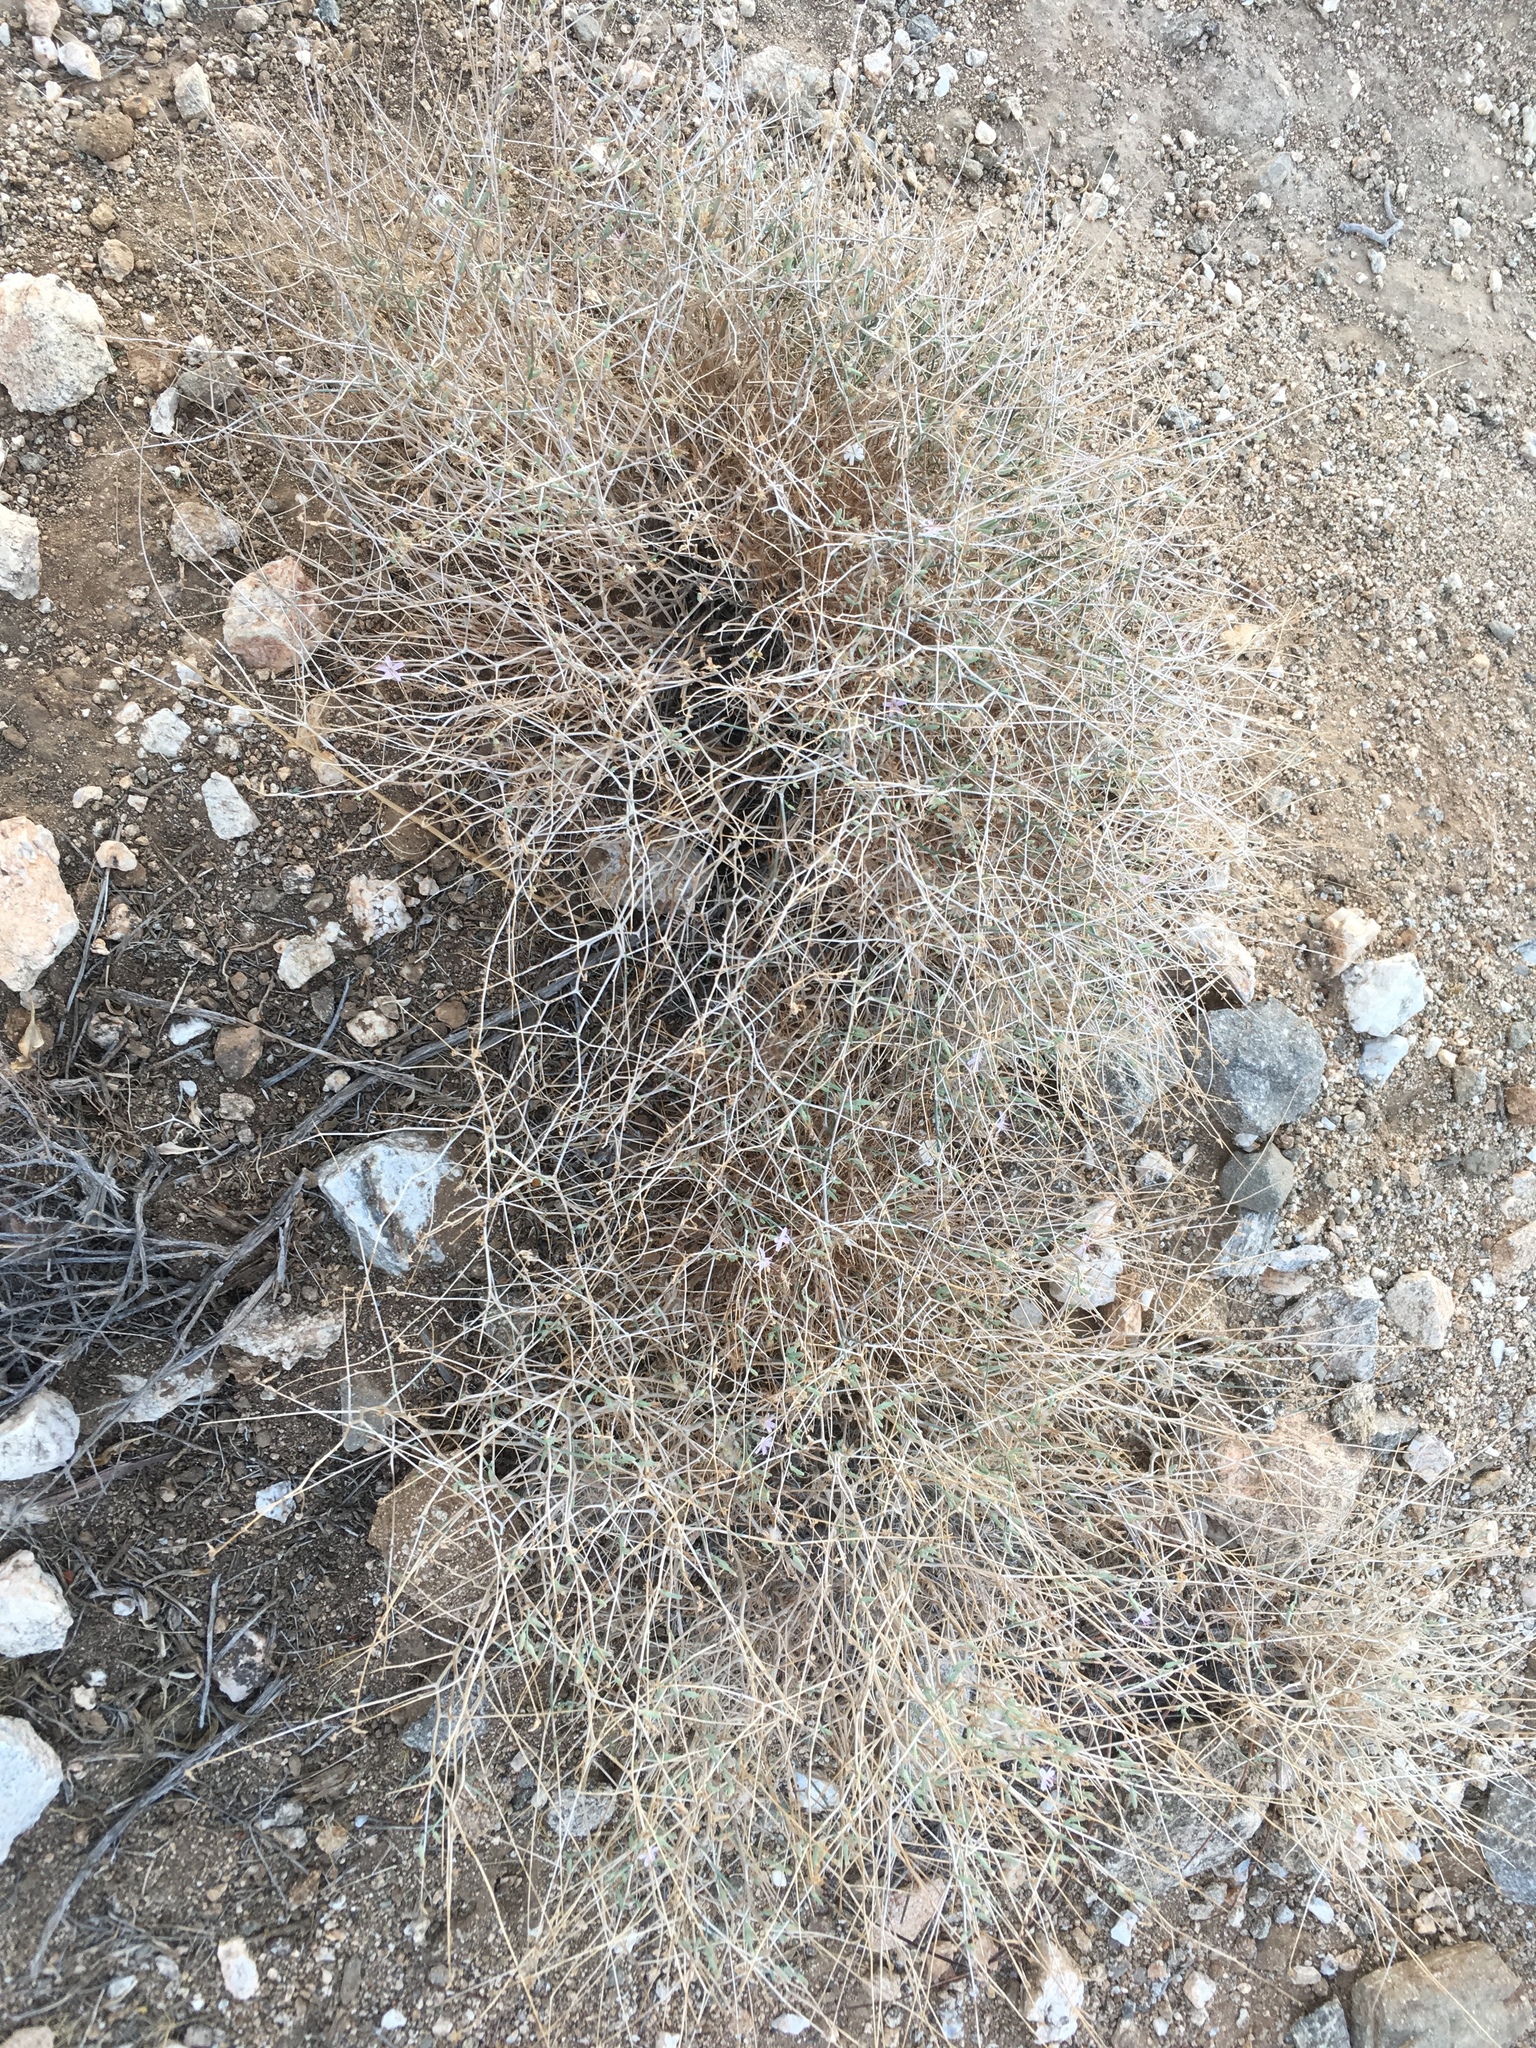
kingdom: Plantae
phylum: Tracheophyta
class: Magnoliopsida
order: Asterales
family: Asteraceae
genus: Stephanomeria
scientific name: Stephanomeria pauciflora
